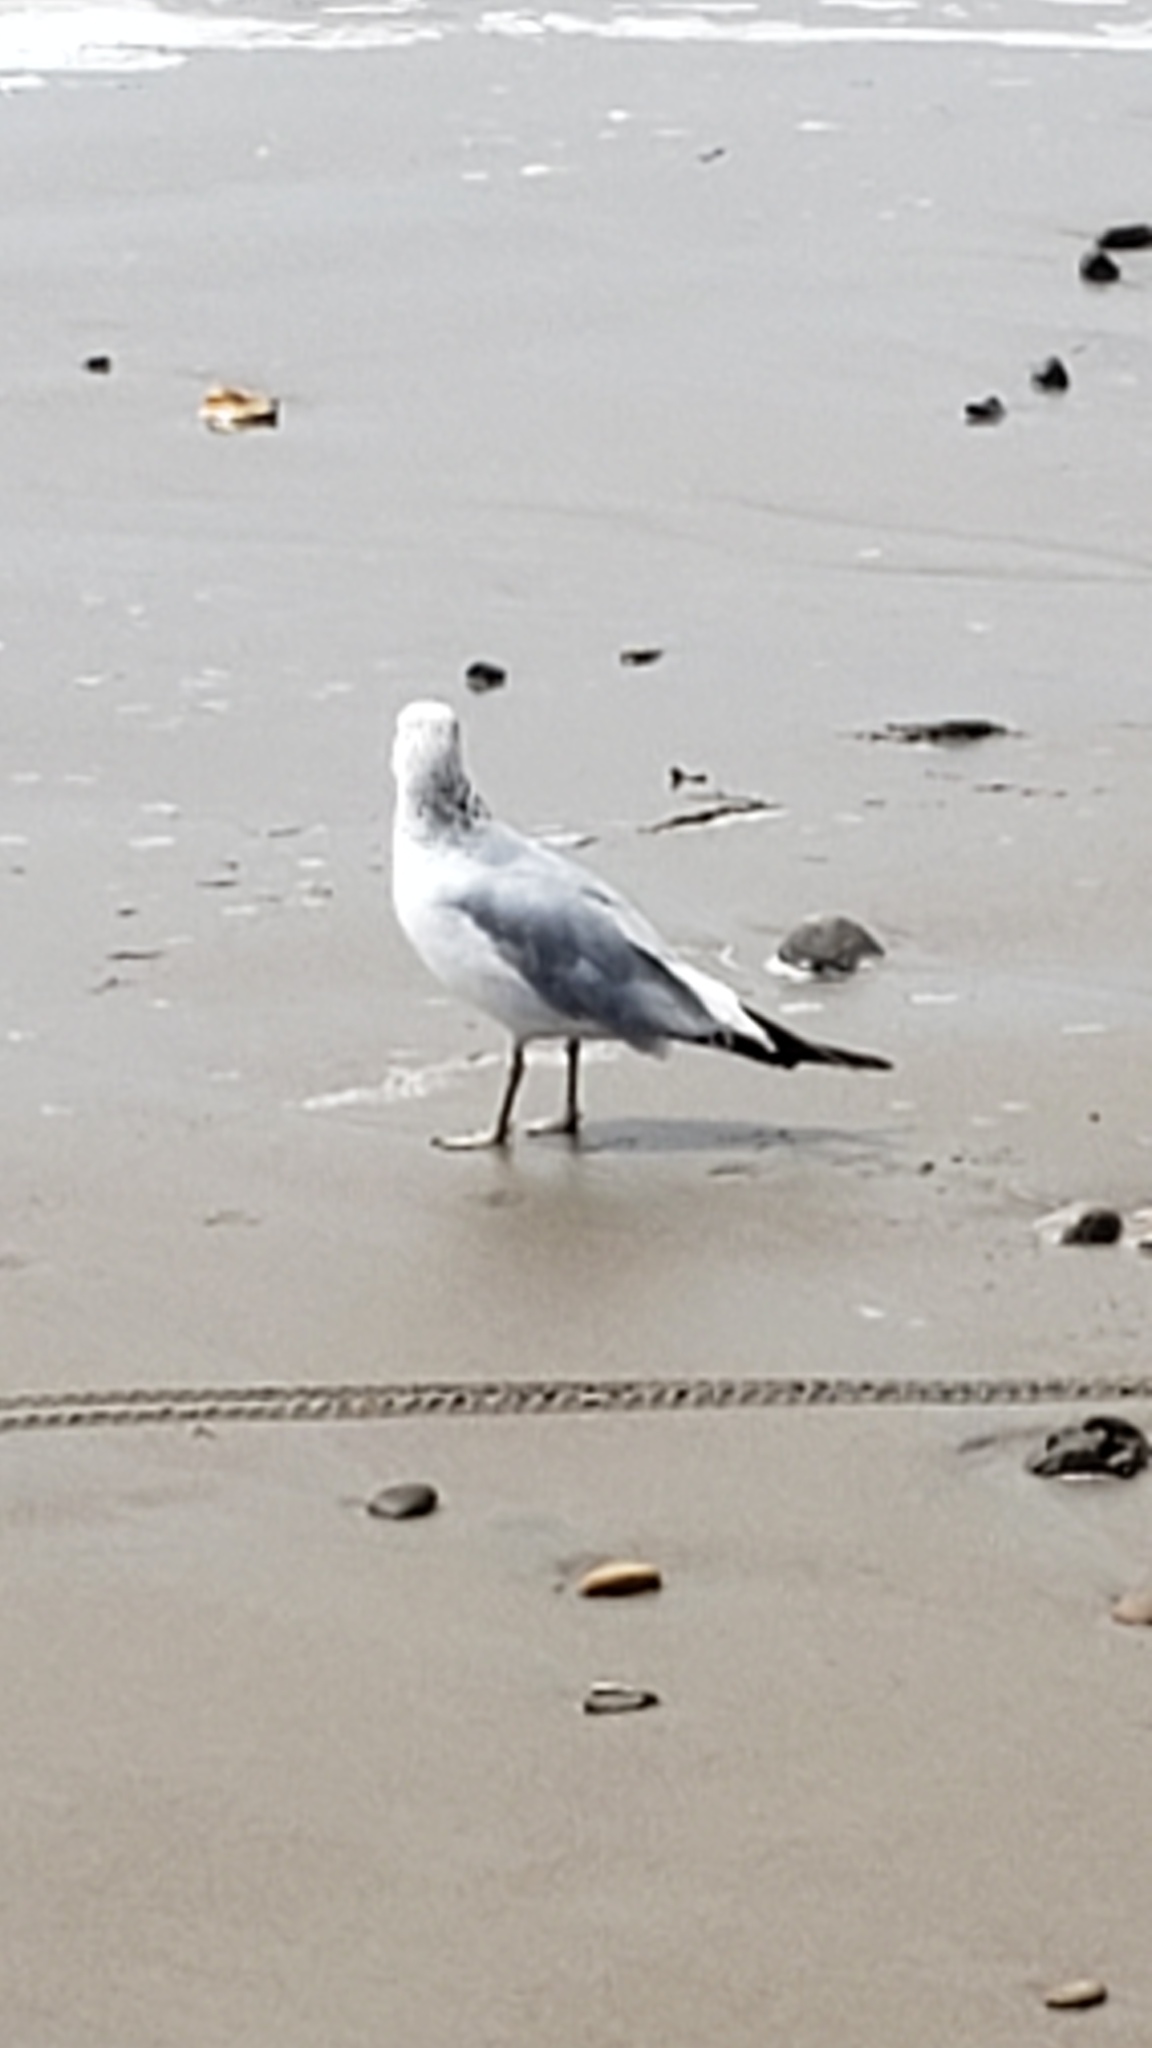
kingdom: Animalia
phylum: Chordata
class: Aves
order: Charadriiformes
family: Laridae
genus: Larus
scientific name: Larus delawarensis
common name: Ring-billed gull
